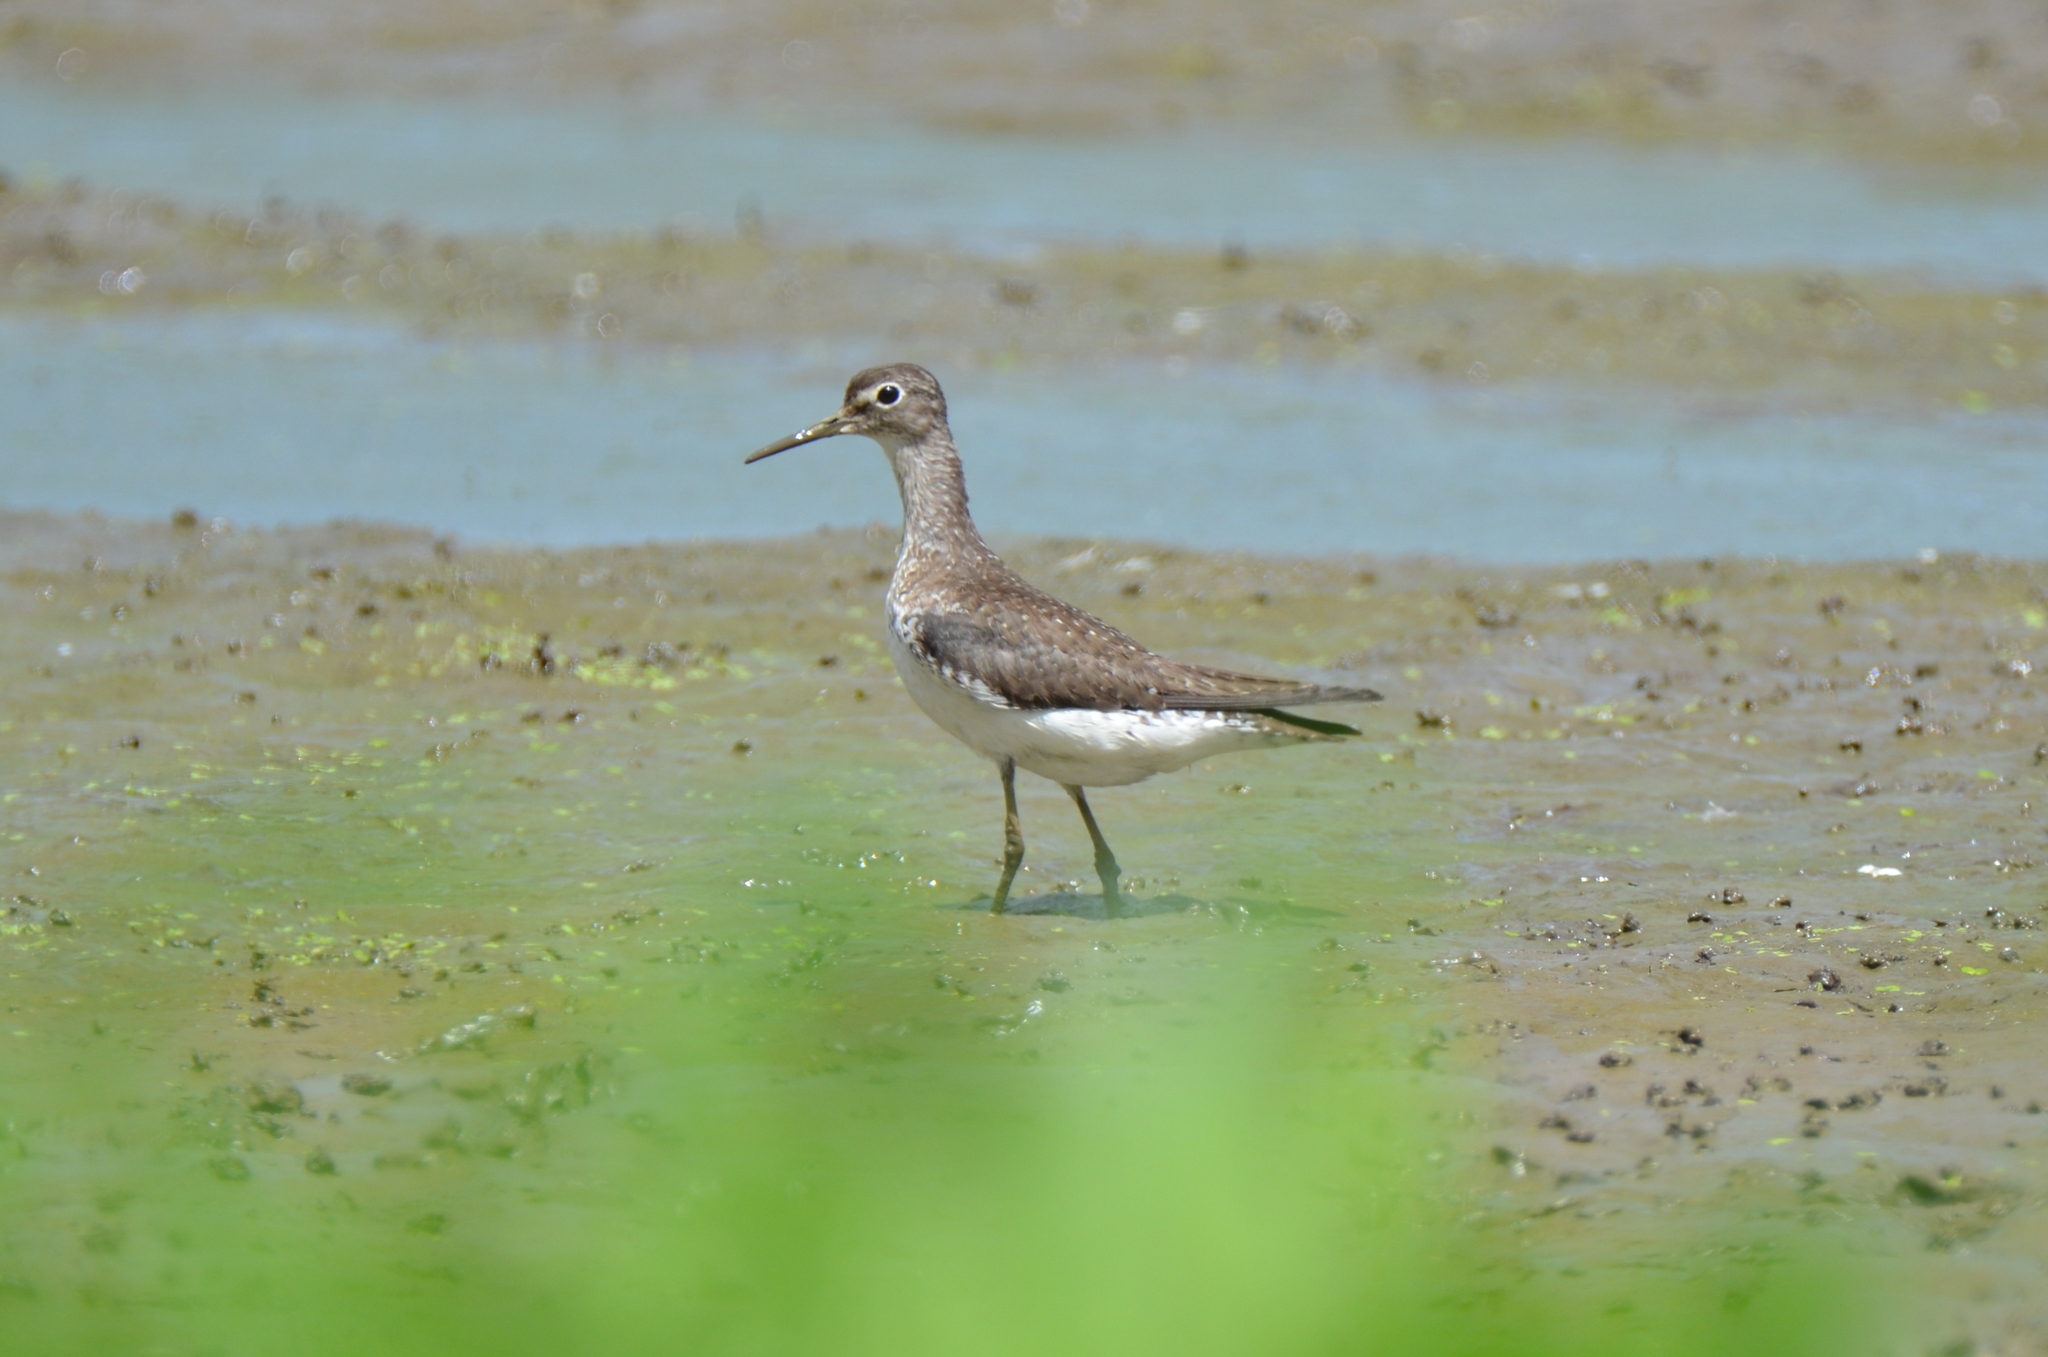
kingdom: Animalia
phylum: Chordata
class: Aves
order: Charadriiformes
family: Scolopacidae
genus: Tringa
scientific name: Tringa solitaria
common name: Solitary sandpiper
